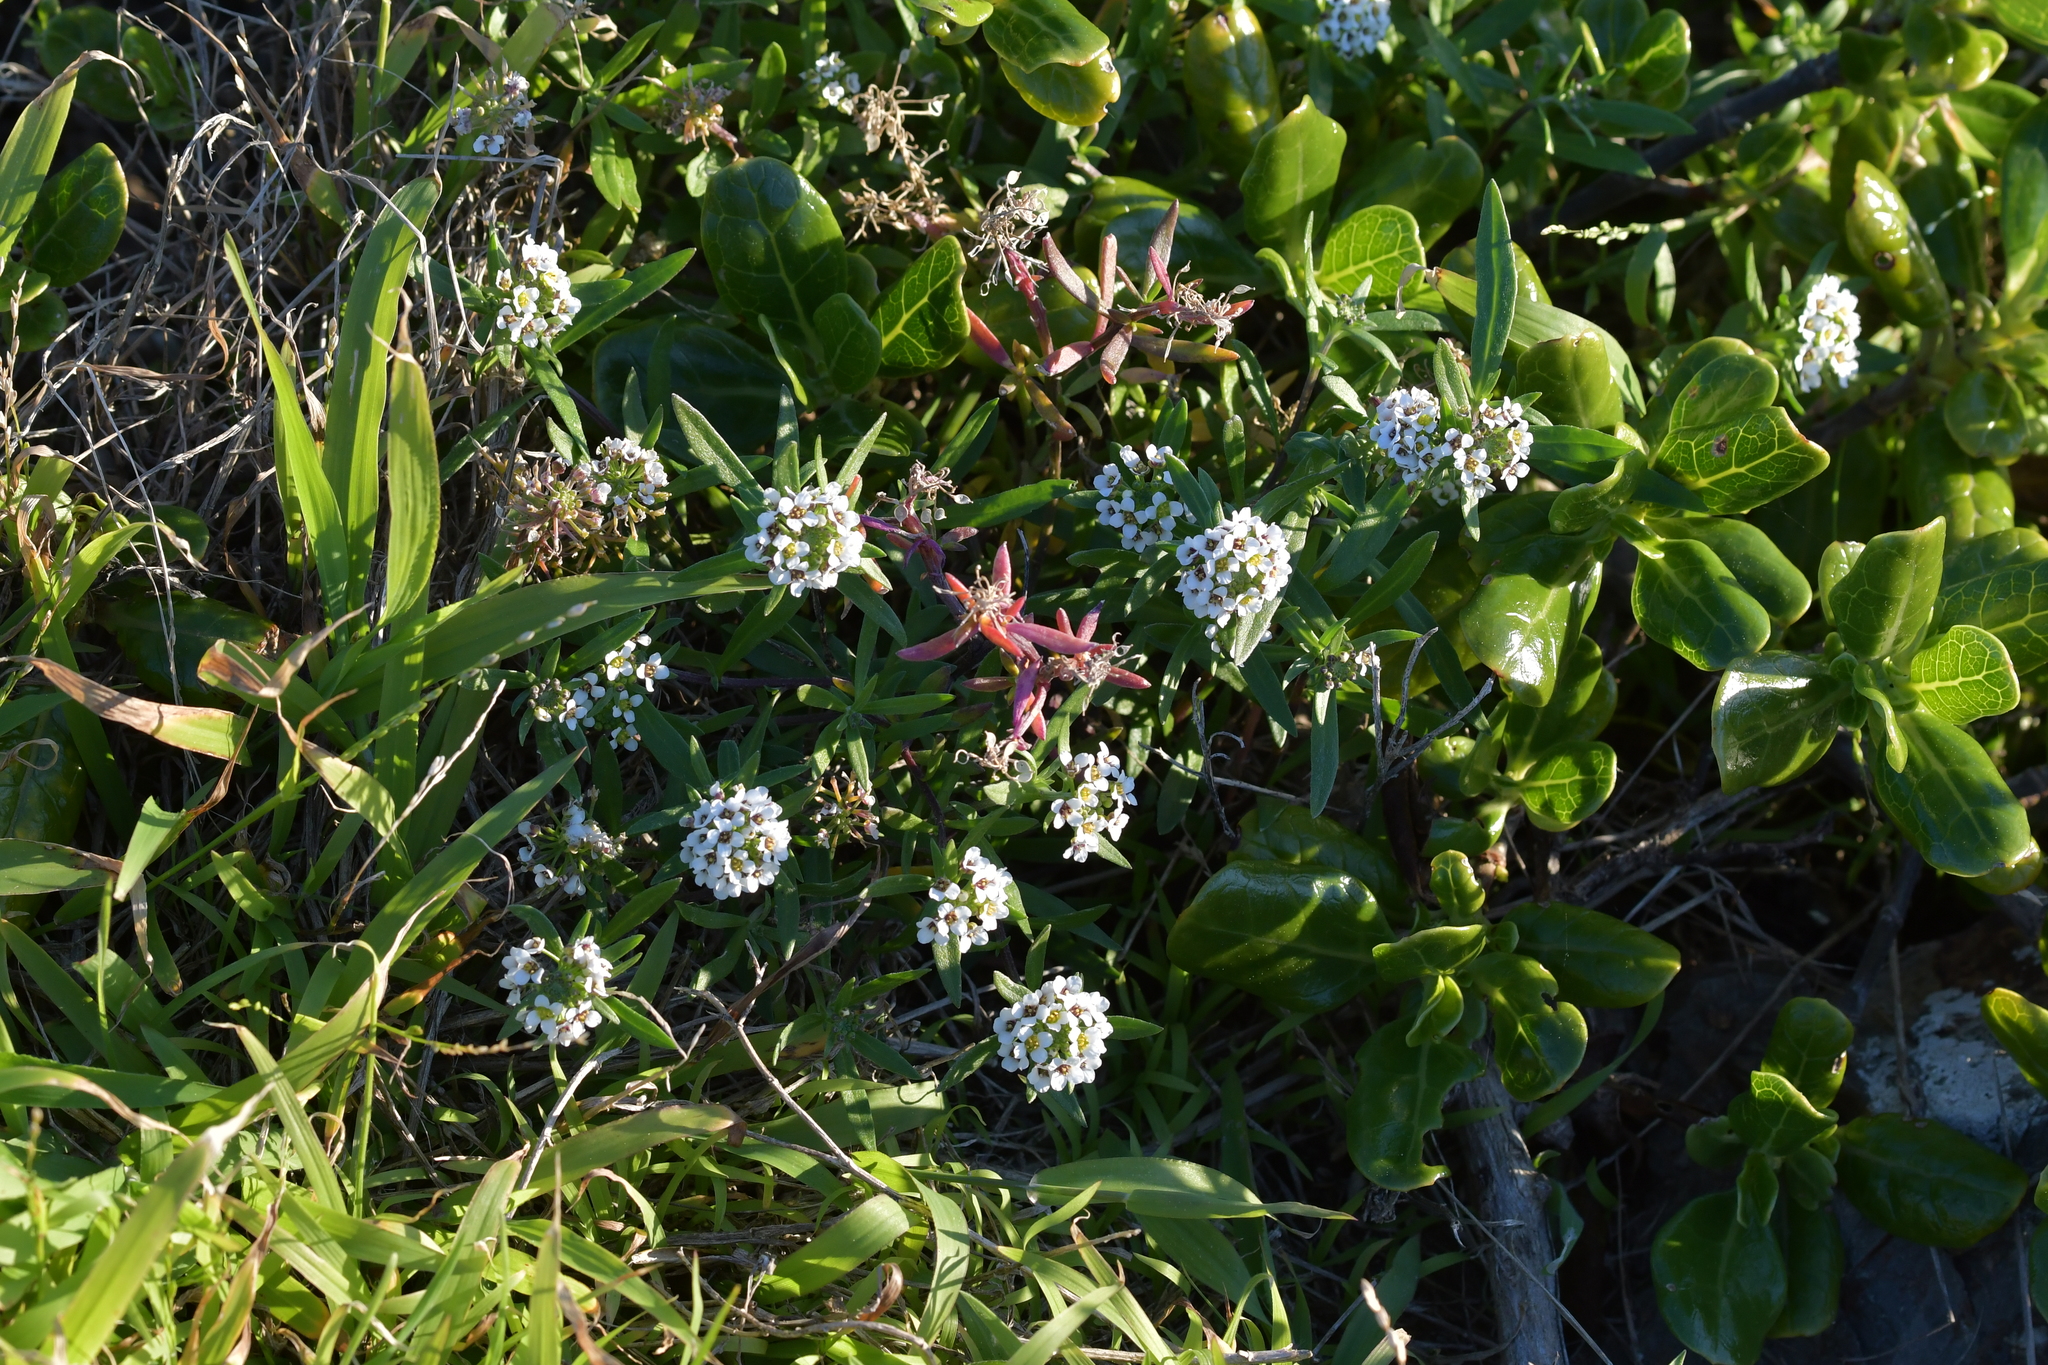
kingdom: Plantae
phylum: Tracheophyta
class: Magnoliopsida
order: Brassicales
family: Brassicaceae
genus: Lobularia
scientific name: Lobularia maritima
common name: Sweet alison
